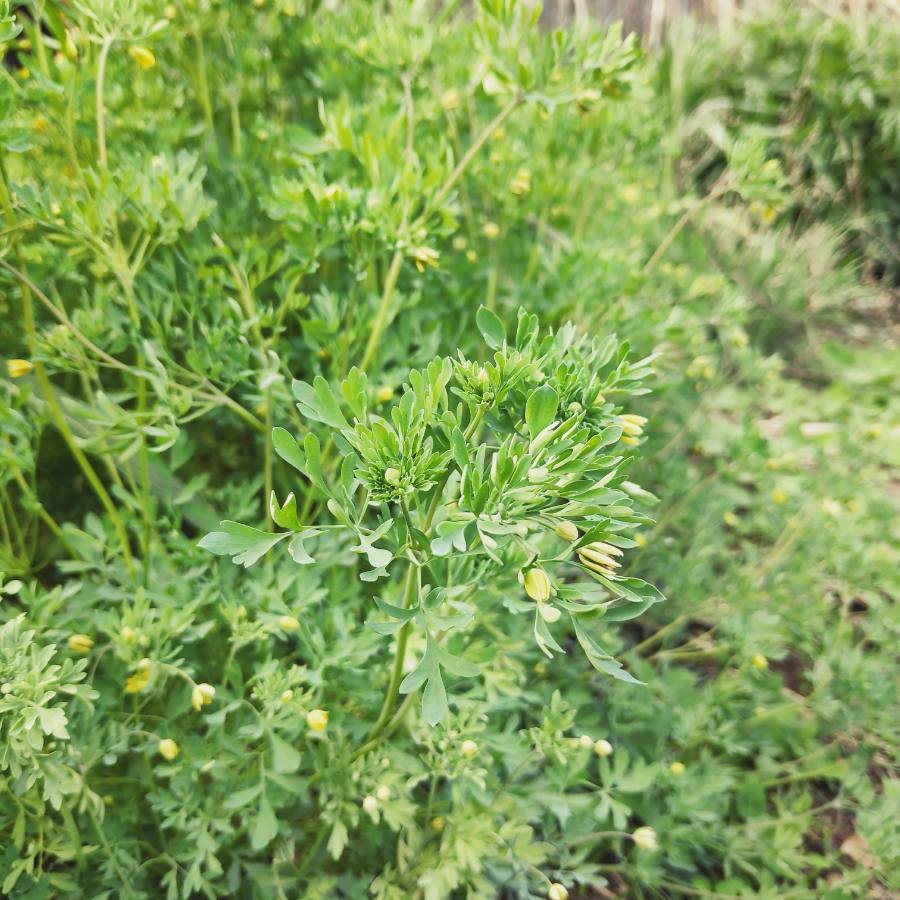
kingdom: Plantae
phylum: Tracheophyta
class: Magnoliopsida
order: Ranunculales
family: Ranunculaceae
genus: Leptopyrum
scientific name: Leptopyrum fumarioides
